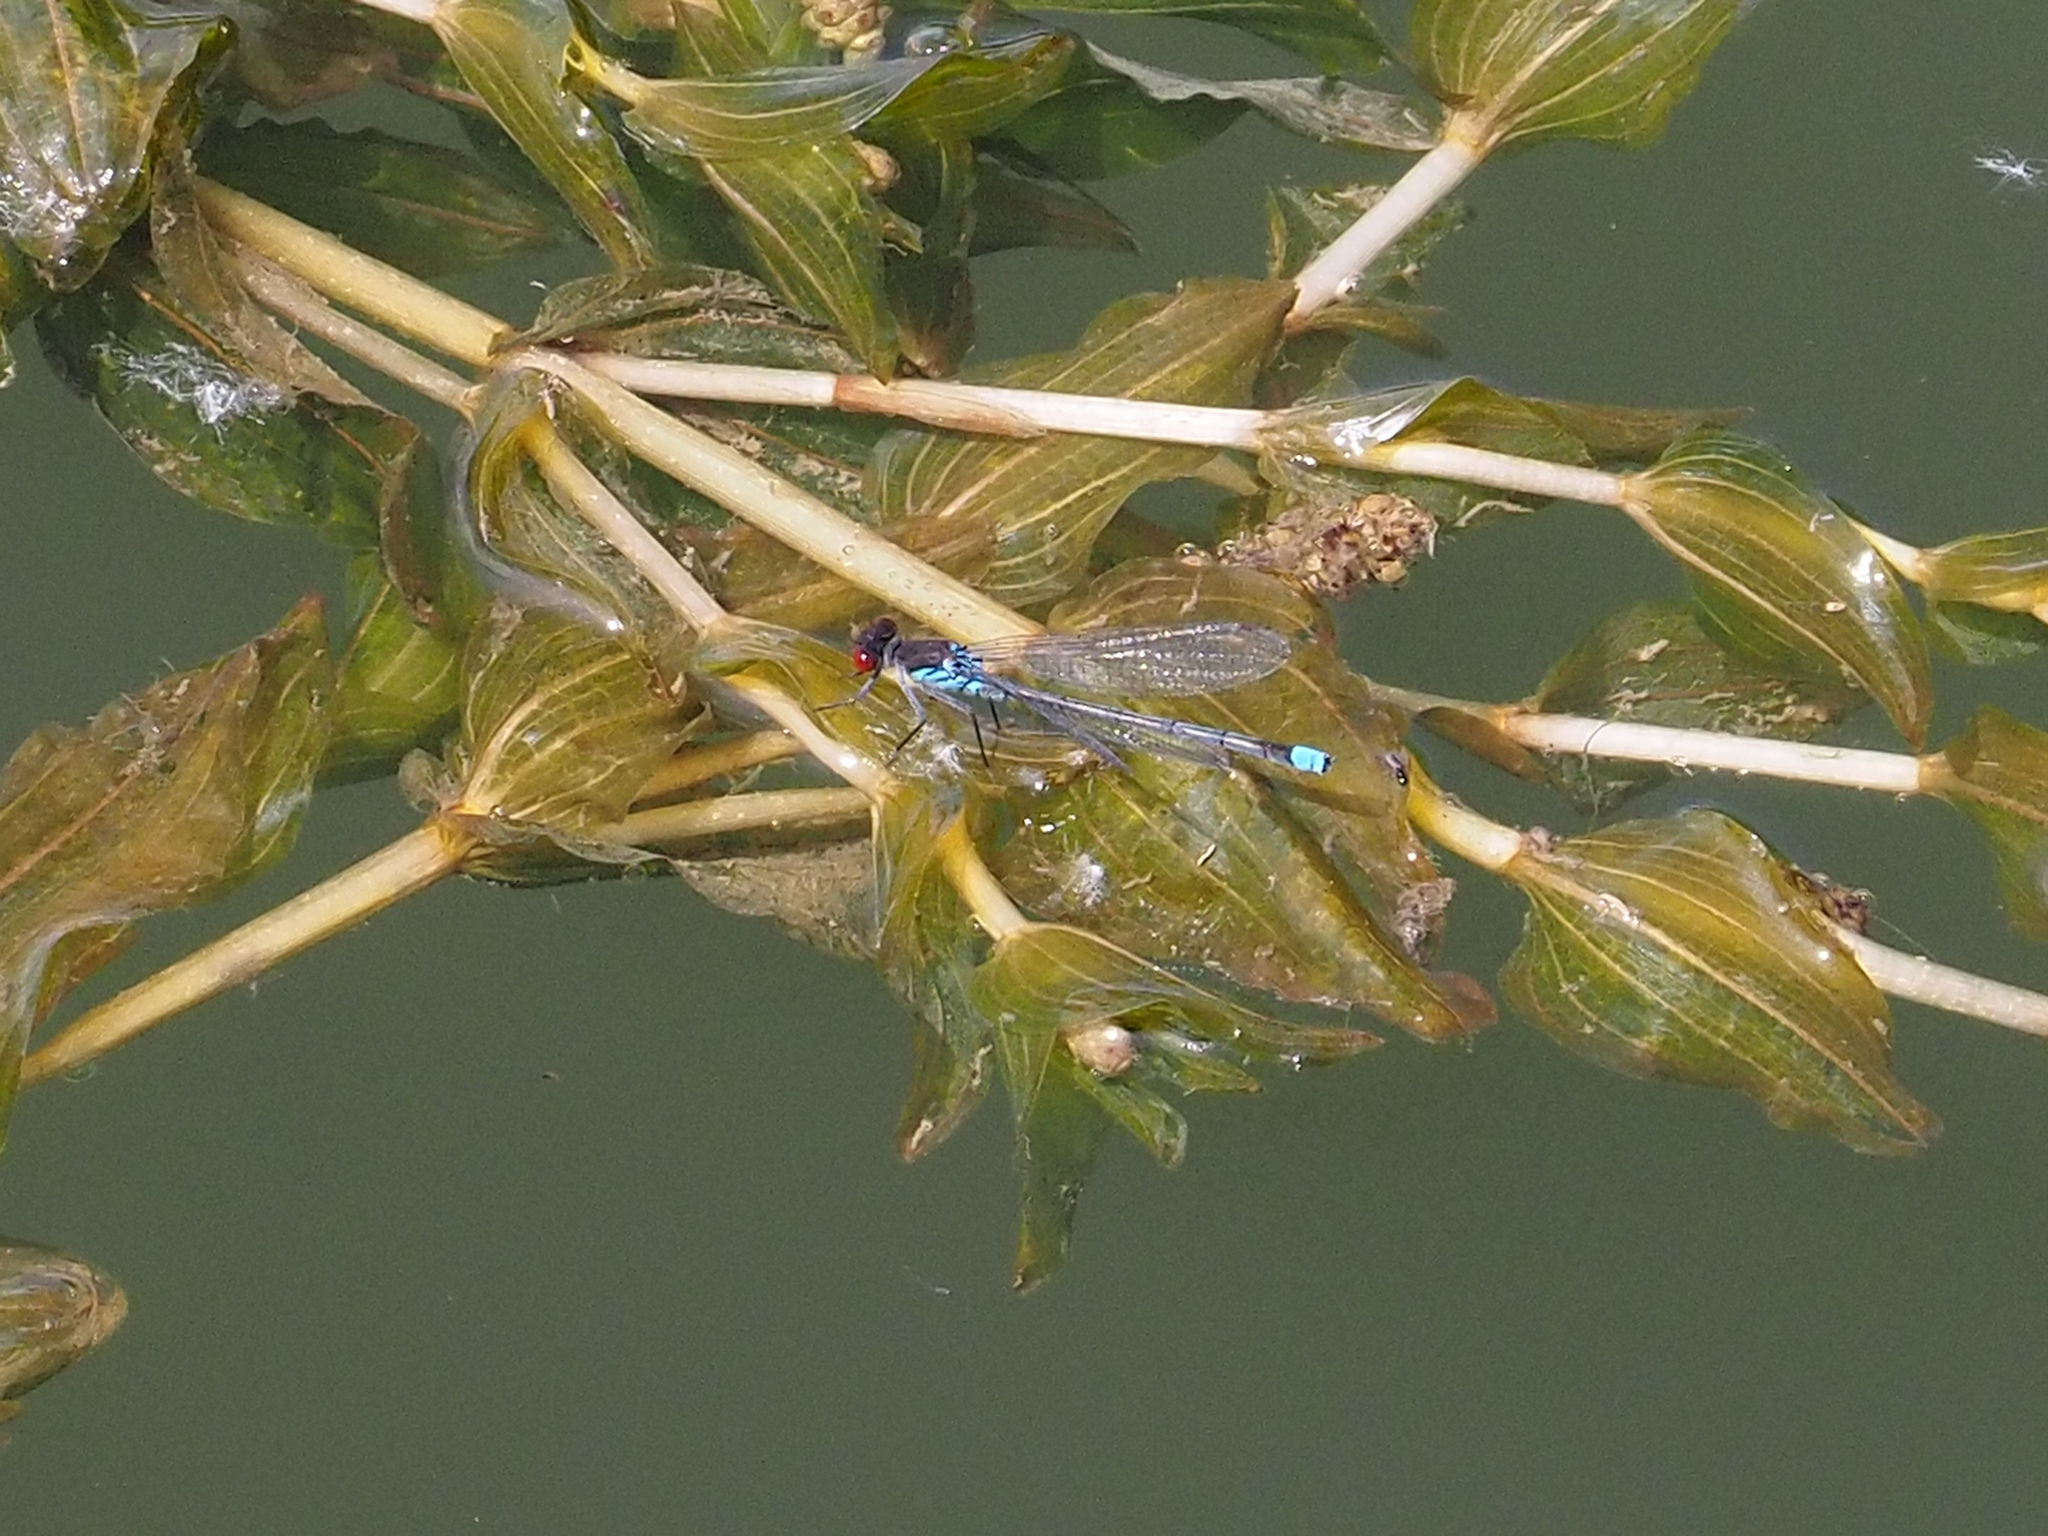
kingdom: Animalia
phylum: Arthropoda
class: Insecta
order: Odonata
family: Coenagrionidae
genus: Erythromma
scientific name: Erythromma najas
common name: Red-eyed damselfly
